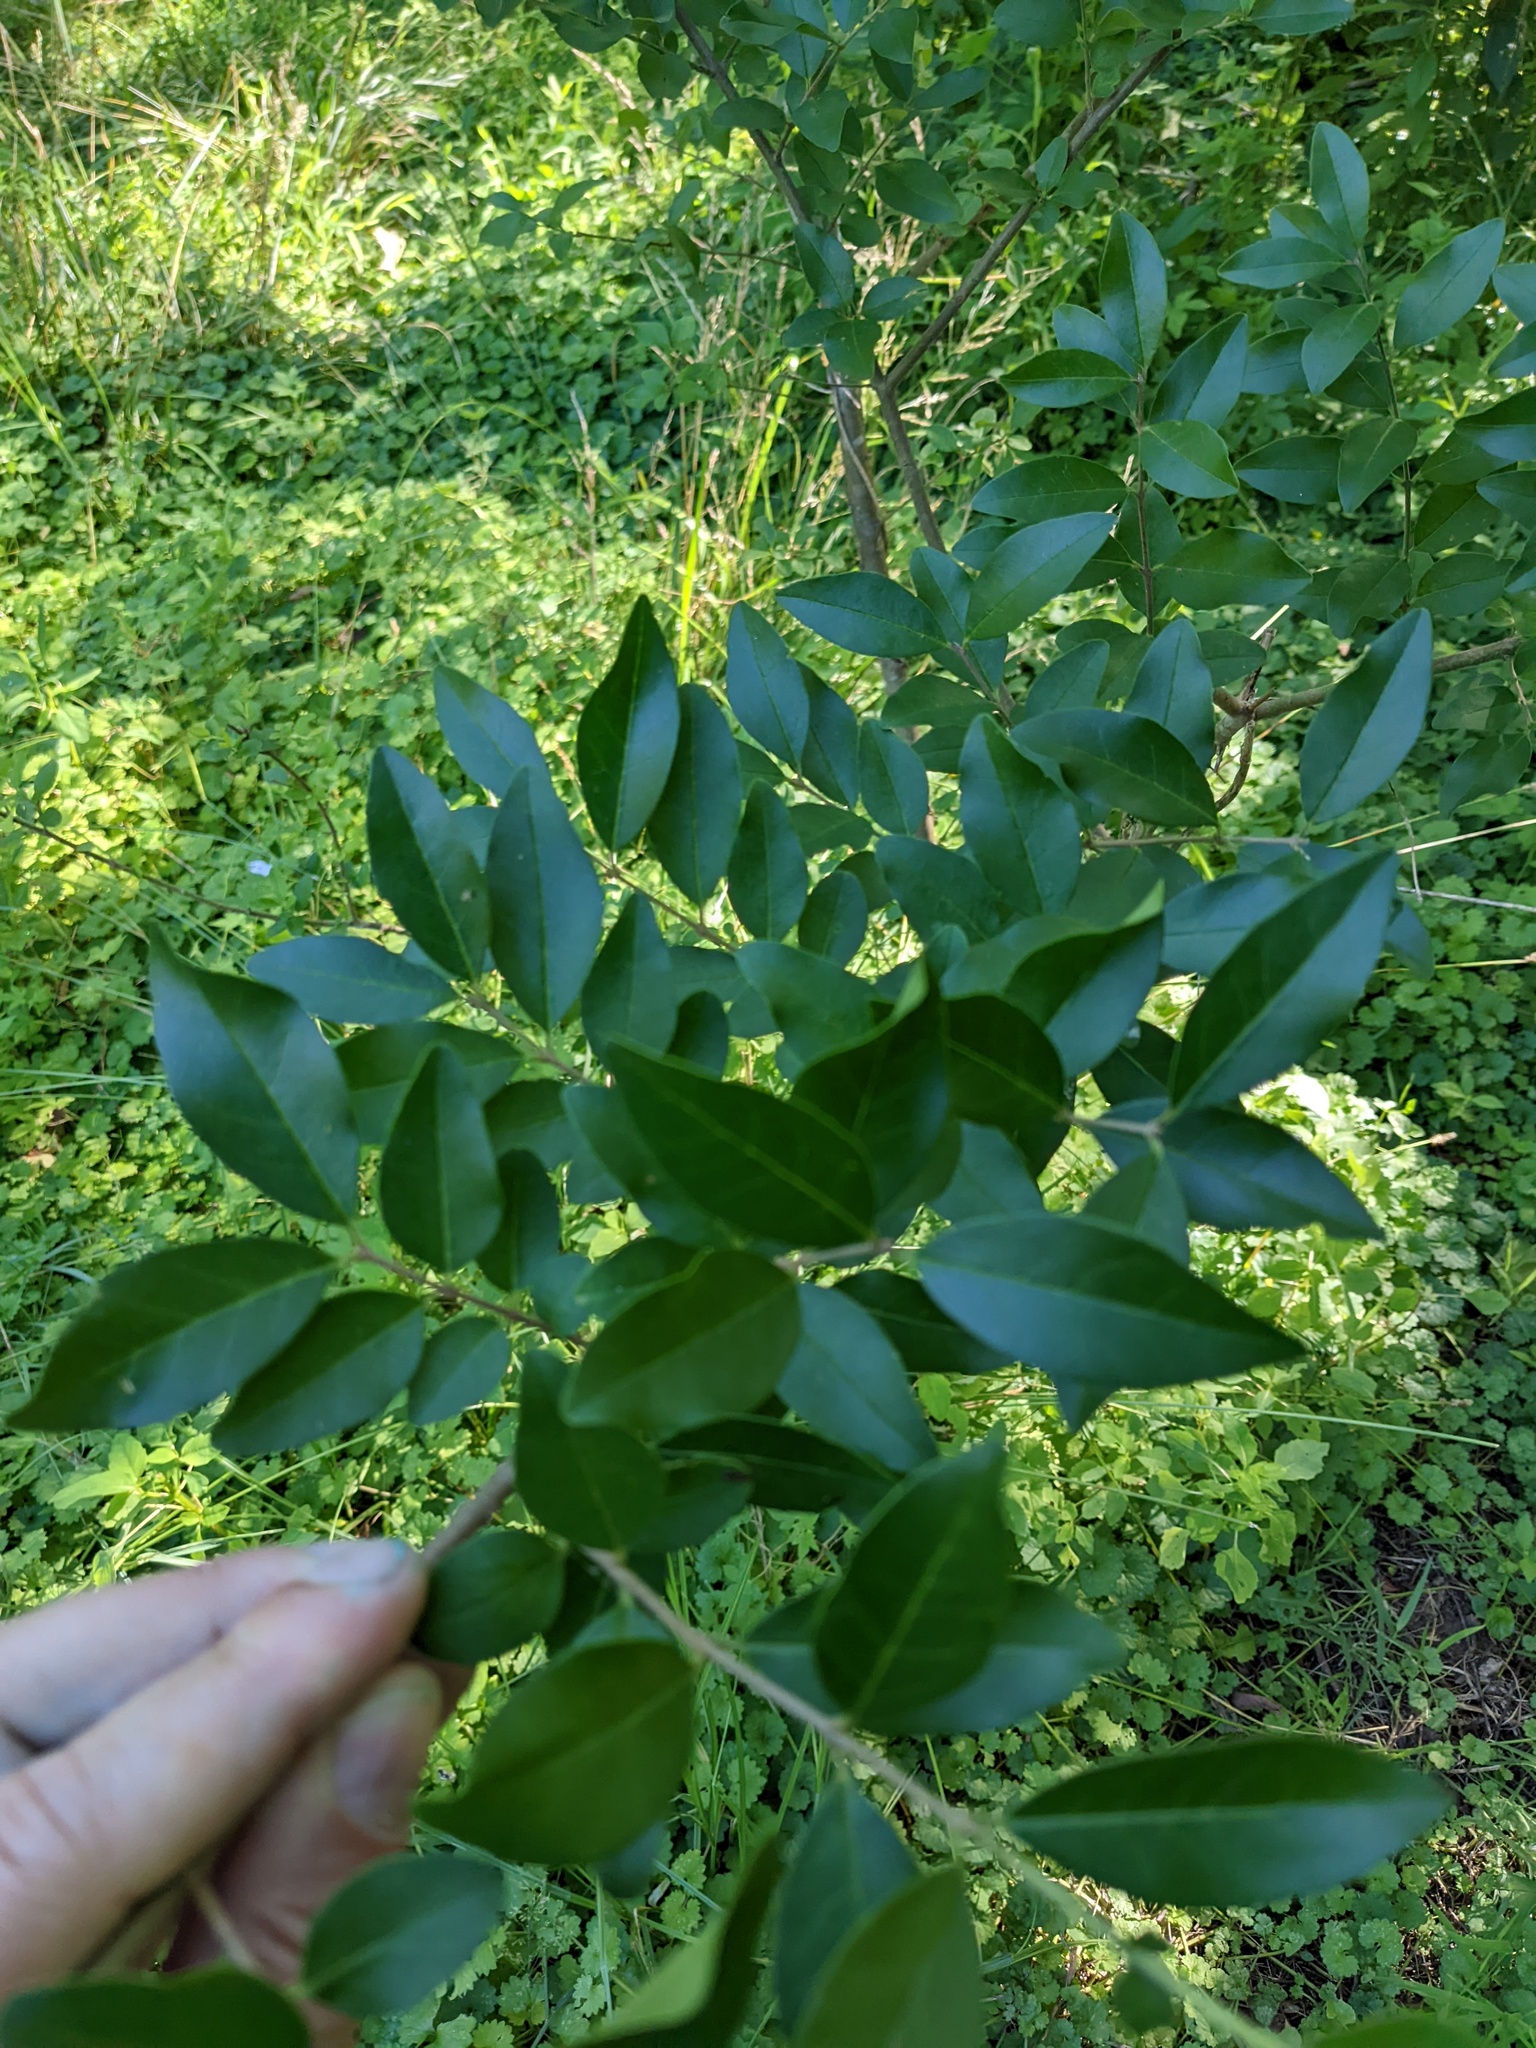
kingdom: Plantae
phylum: Tracheophyta
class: Magnoliopsida
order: Lamiales
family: Oleaceae
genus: Ligustrum
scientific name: Ligustrum sinense
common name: Chinese privet
